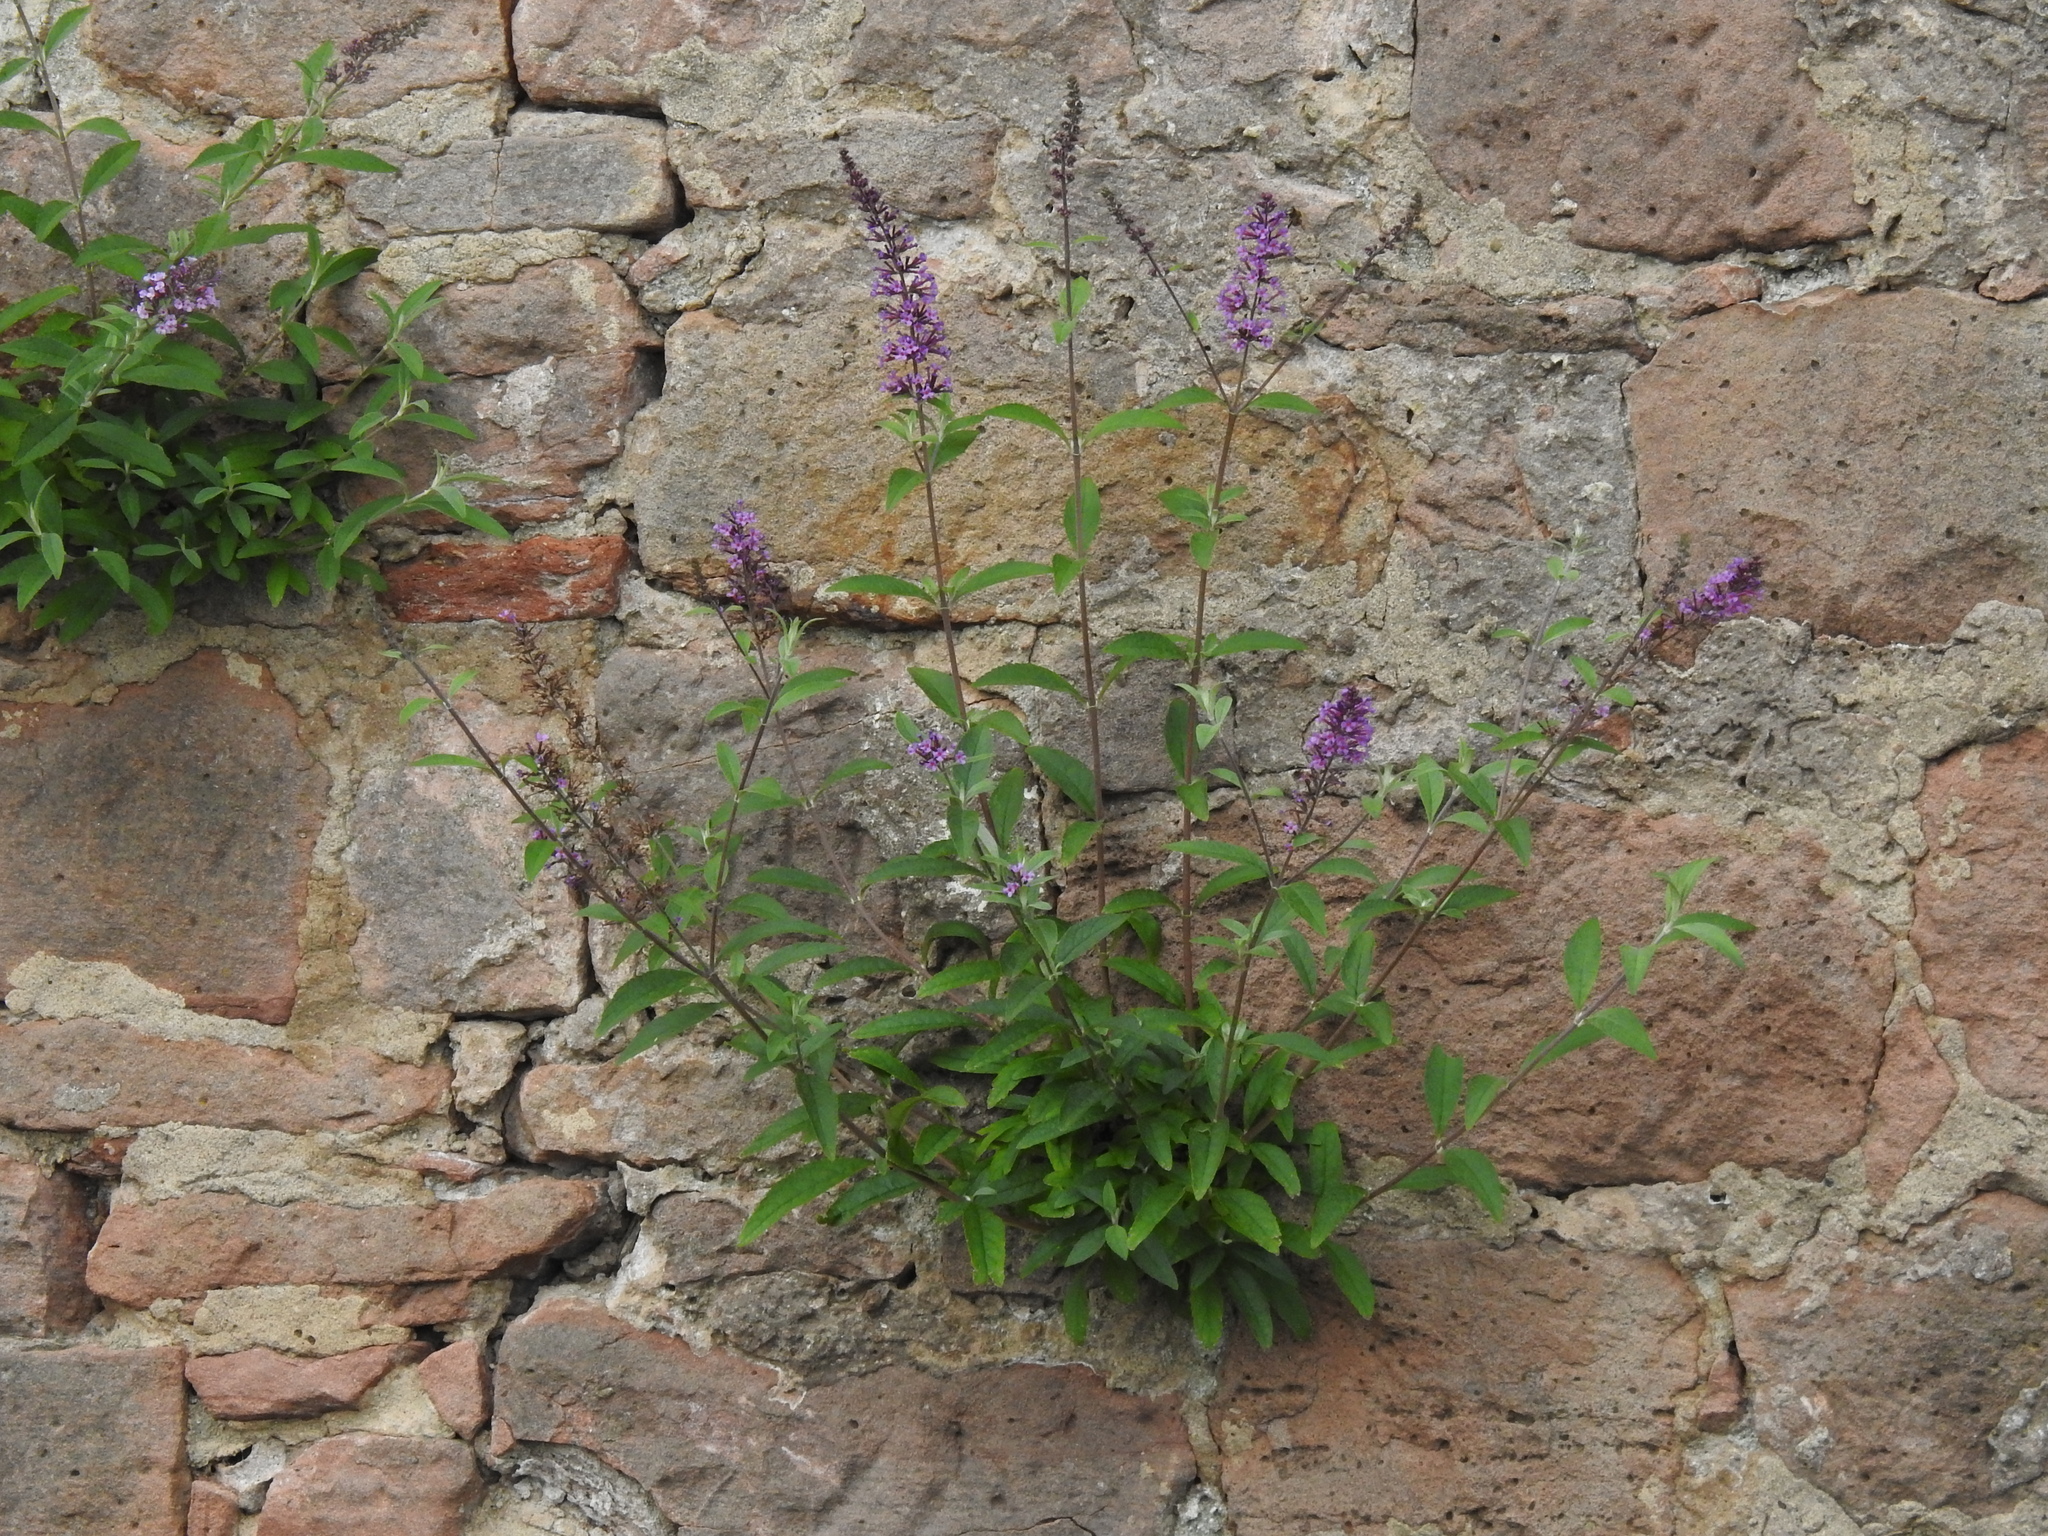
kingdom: Plantae
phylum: Tracheophyta
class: Magnoliopsida
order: Lamiales
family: Scrophulariaceae
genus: Buddleja
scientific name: Buddleja davidii
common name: Butterfly-bush
